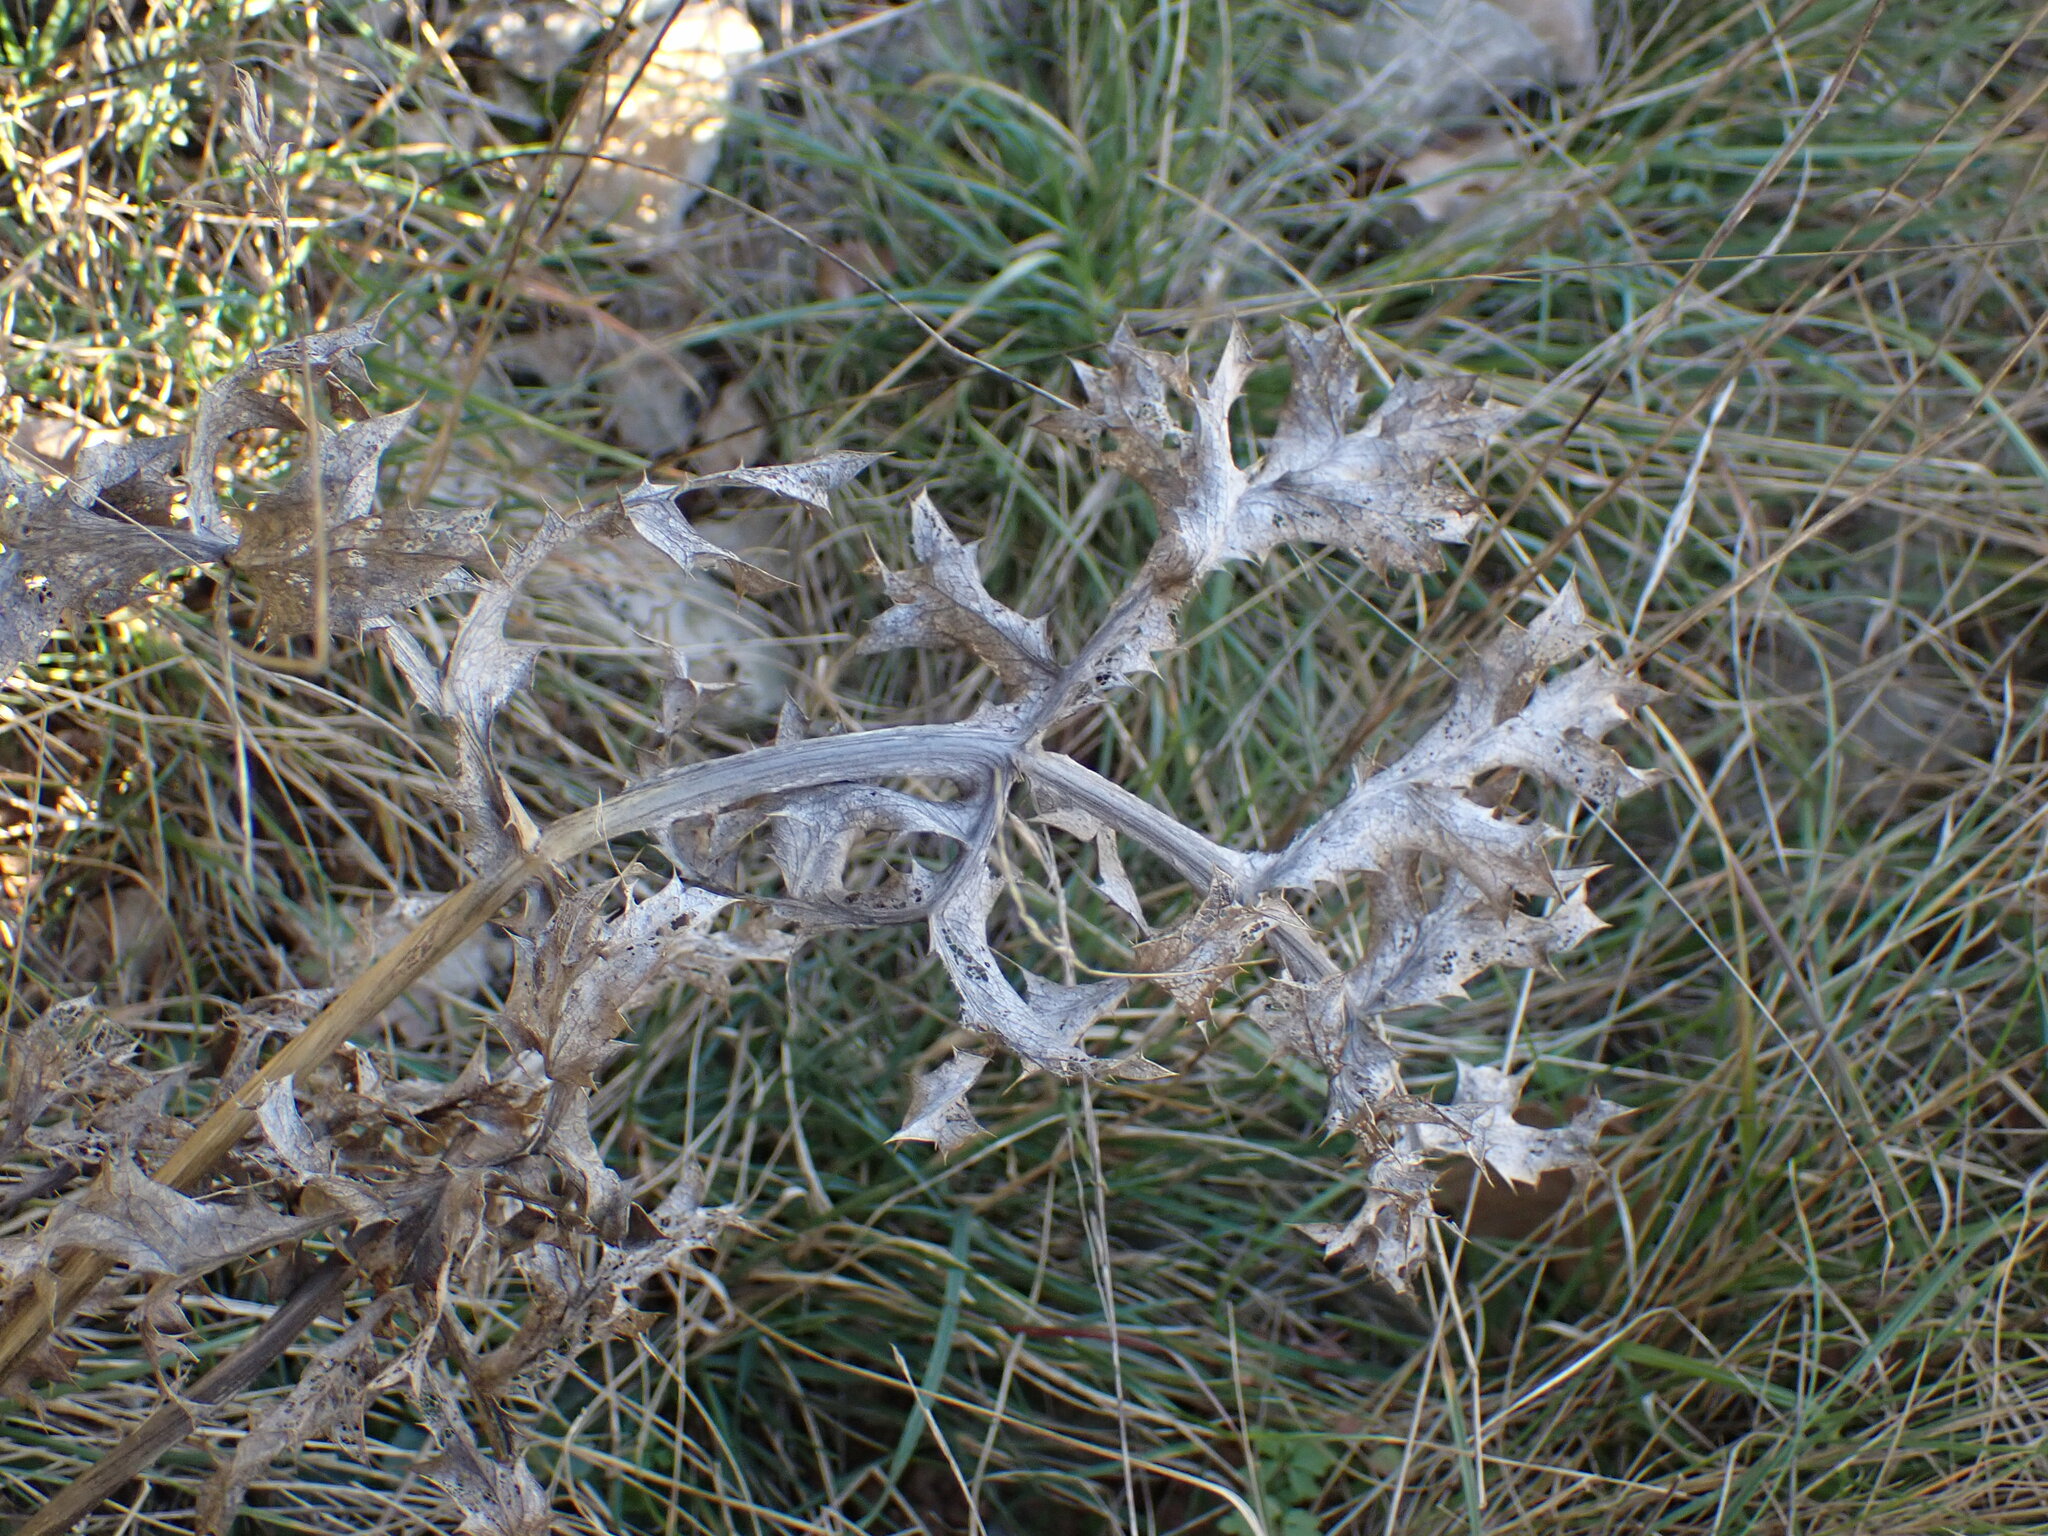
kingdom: Plantae
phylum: Tracheophyta
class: Magnoliopsida
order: Apiales
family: Apiaceae
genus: Eryngium
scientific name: Eryngium campestre
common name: Field eryngo
